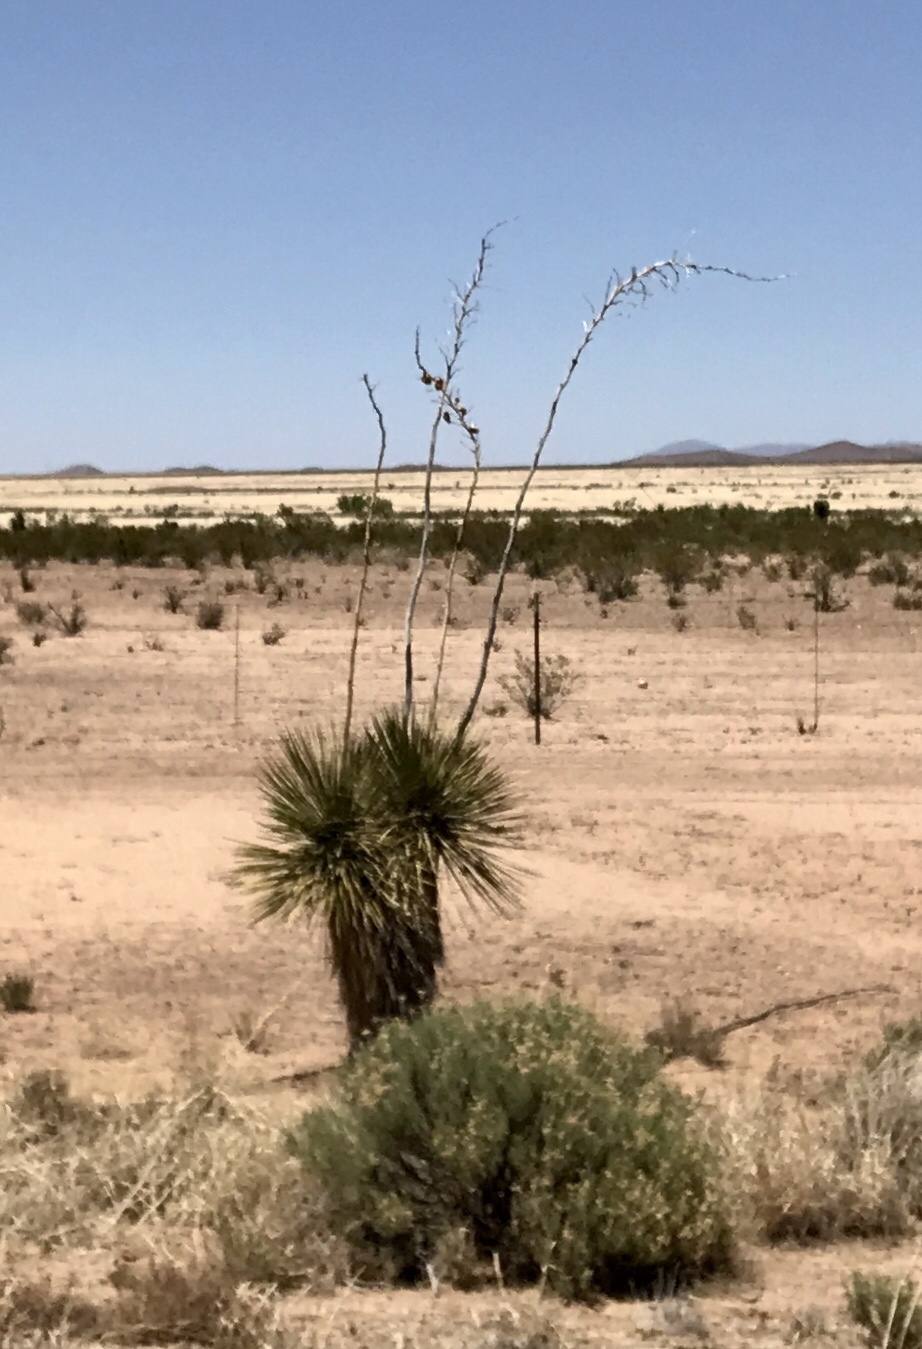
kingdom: Plantae
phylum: Tracheophyta
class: Liliopsida
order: Asparagales
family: Asparagaceae
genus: Yucca
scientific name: Yucca elata
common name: Palmella
